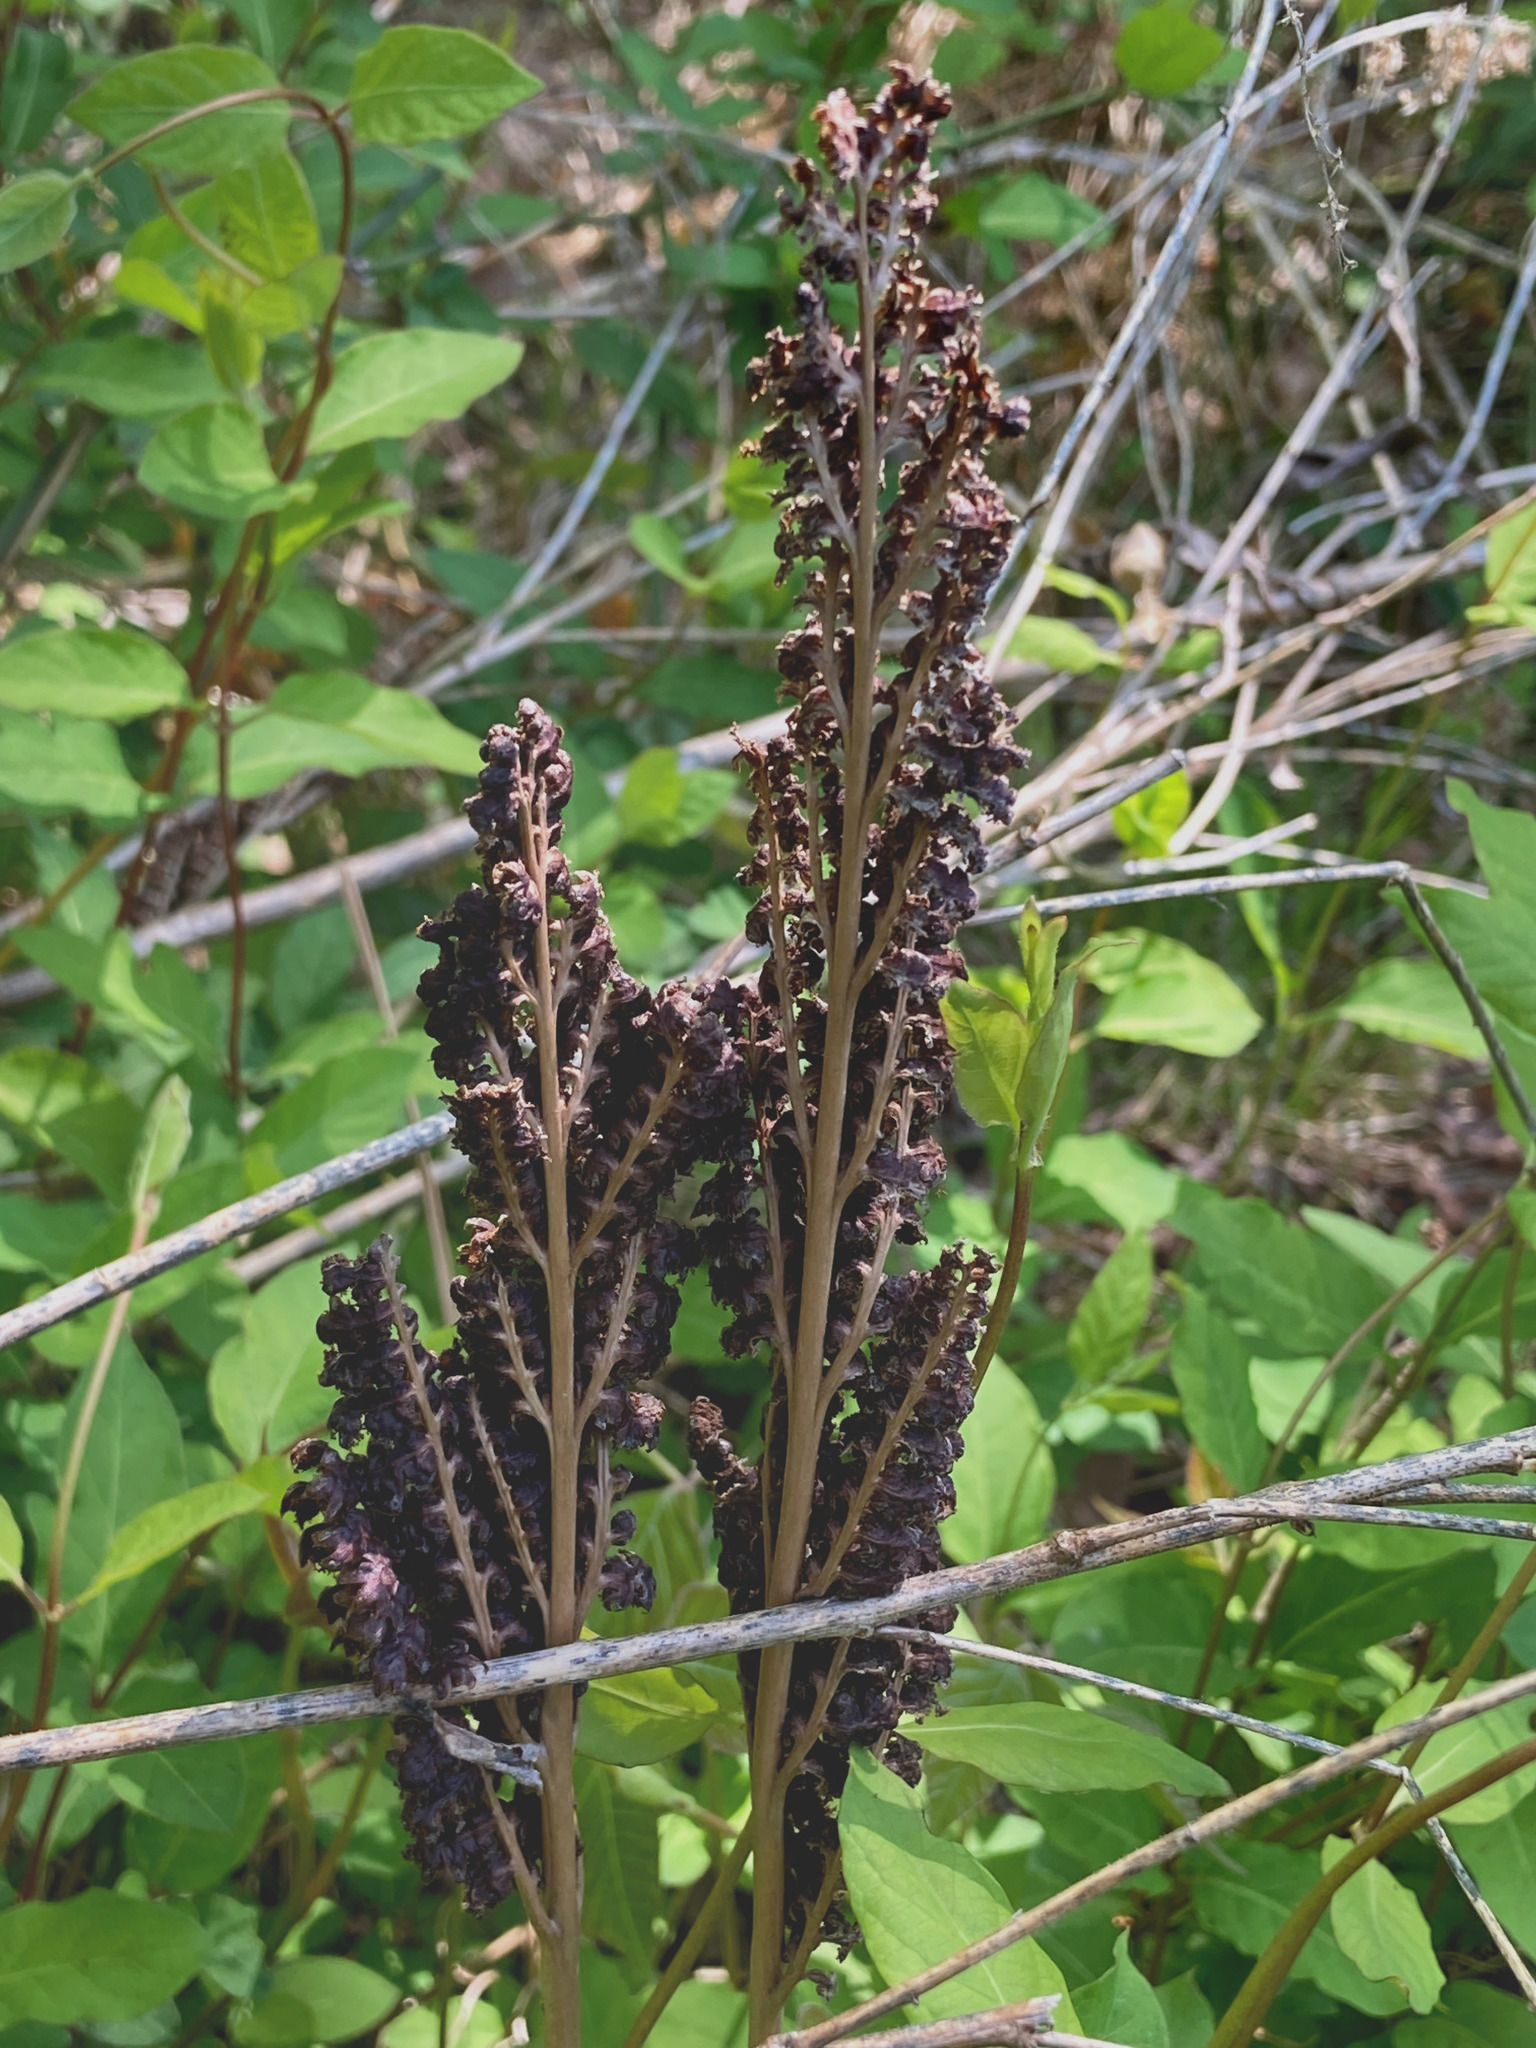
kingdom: Plantae
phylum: Tracheophyta
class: Polypodiopsida
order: Polypodiales
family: Onocleaceae
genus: Onoclea
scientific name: Onoclea sensibilis
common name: Sensitive fern
